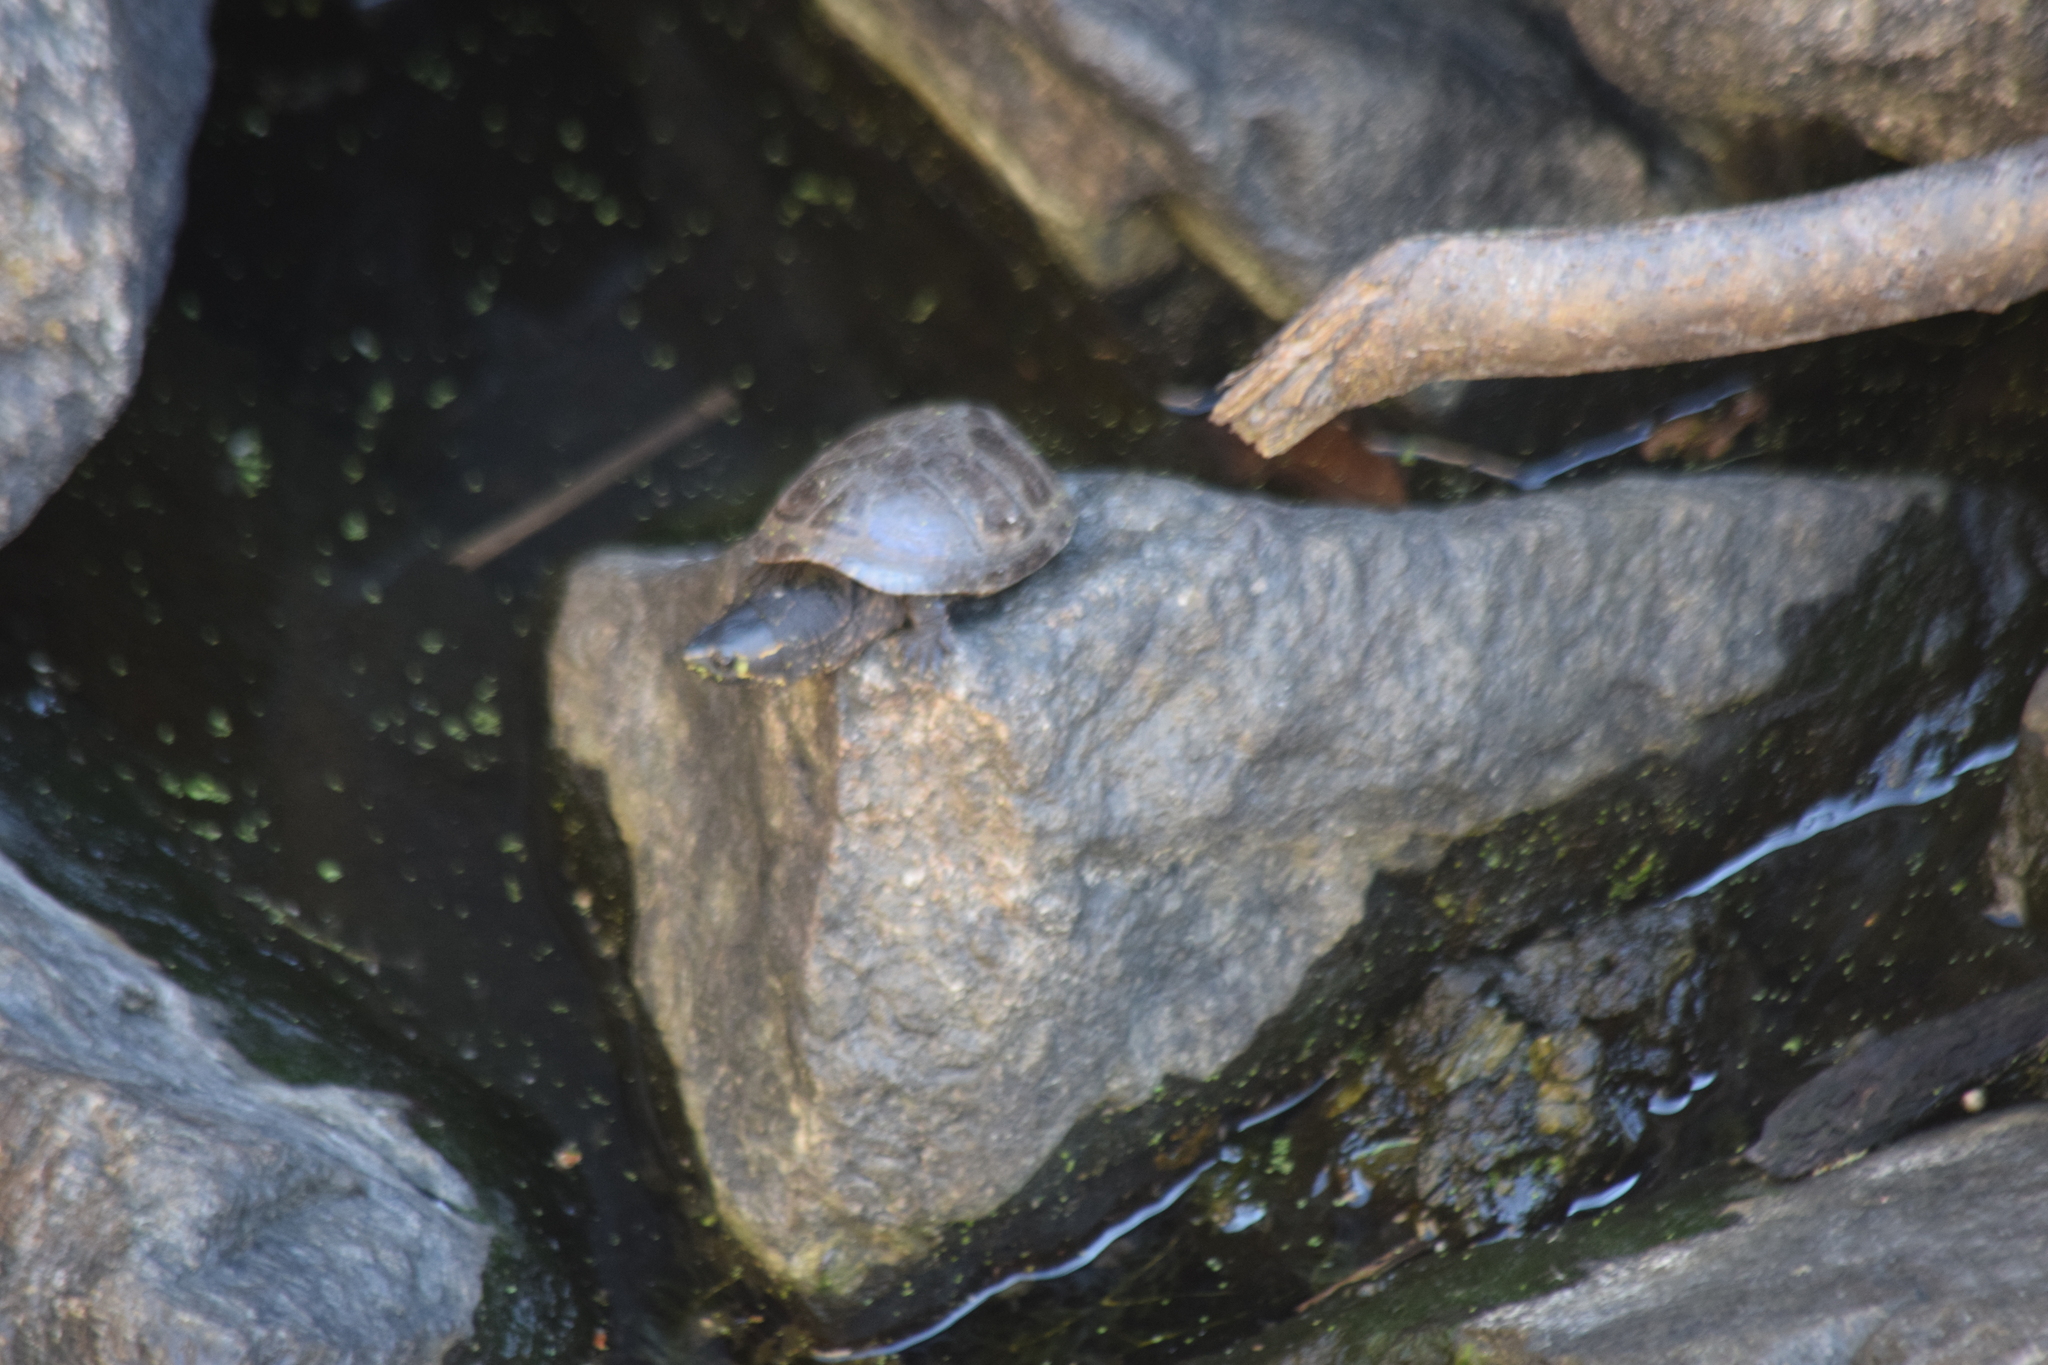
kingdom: Animalia
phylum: Chordata
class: Testudines
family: Kinosternidae
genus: Sternotherus
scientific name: Sternotherus odoratus
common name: Common musk turtle
